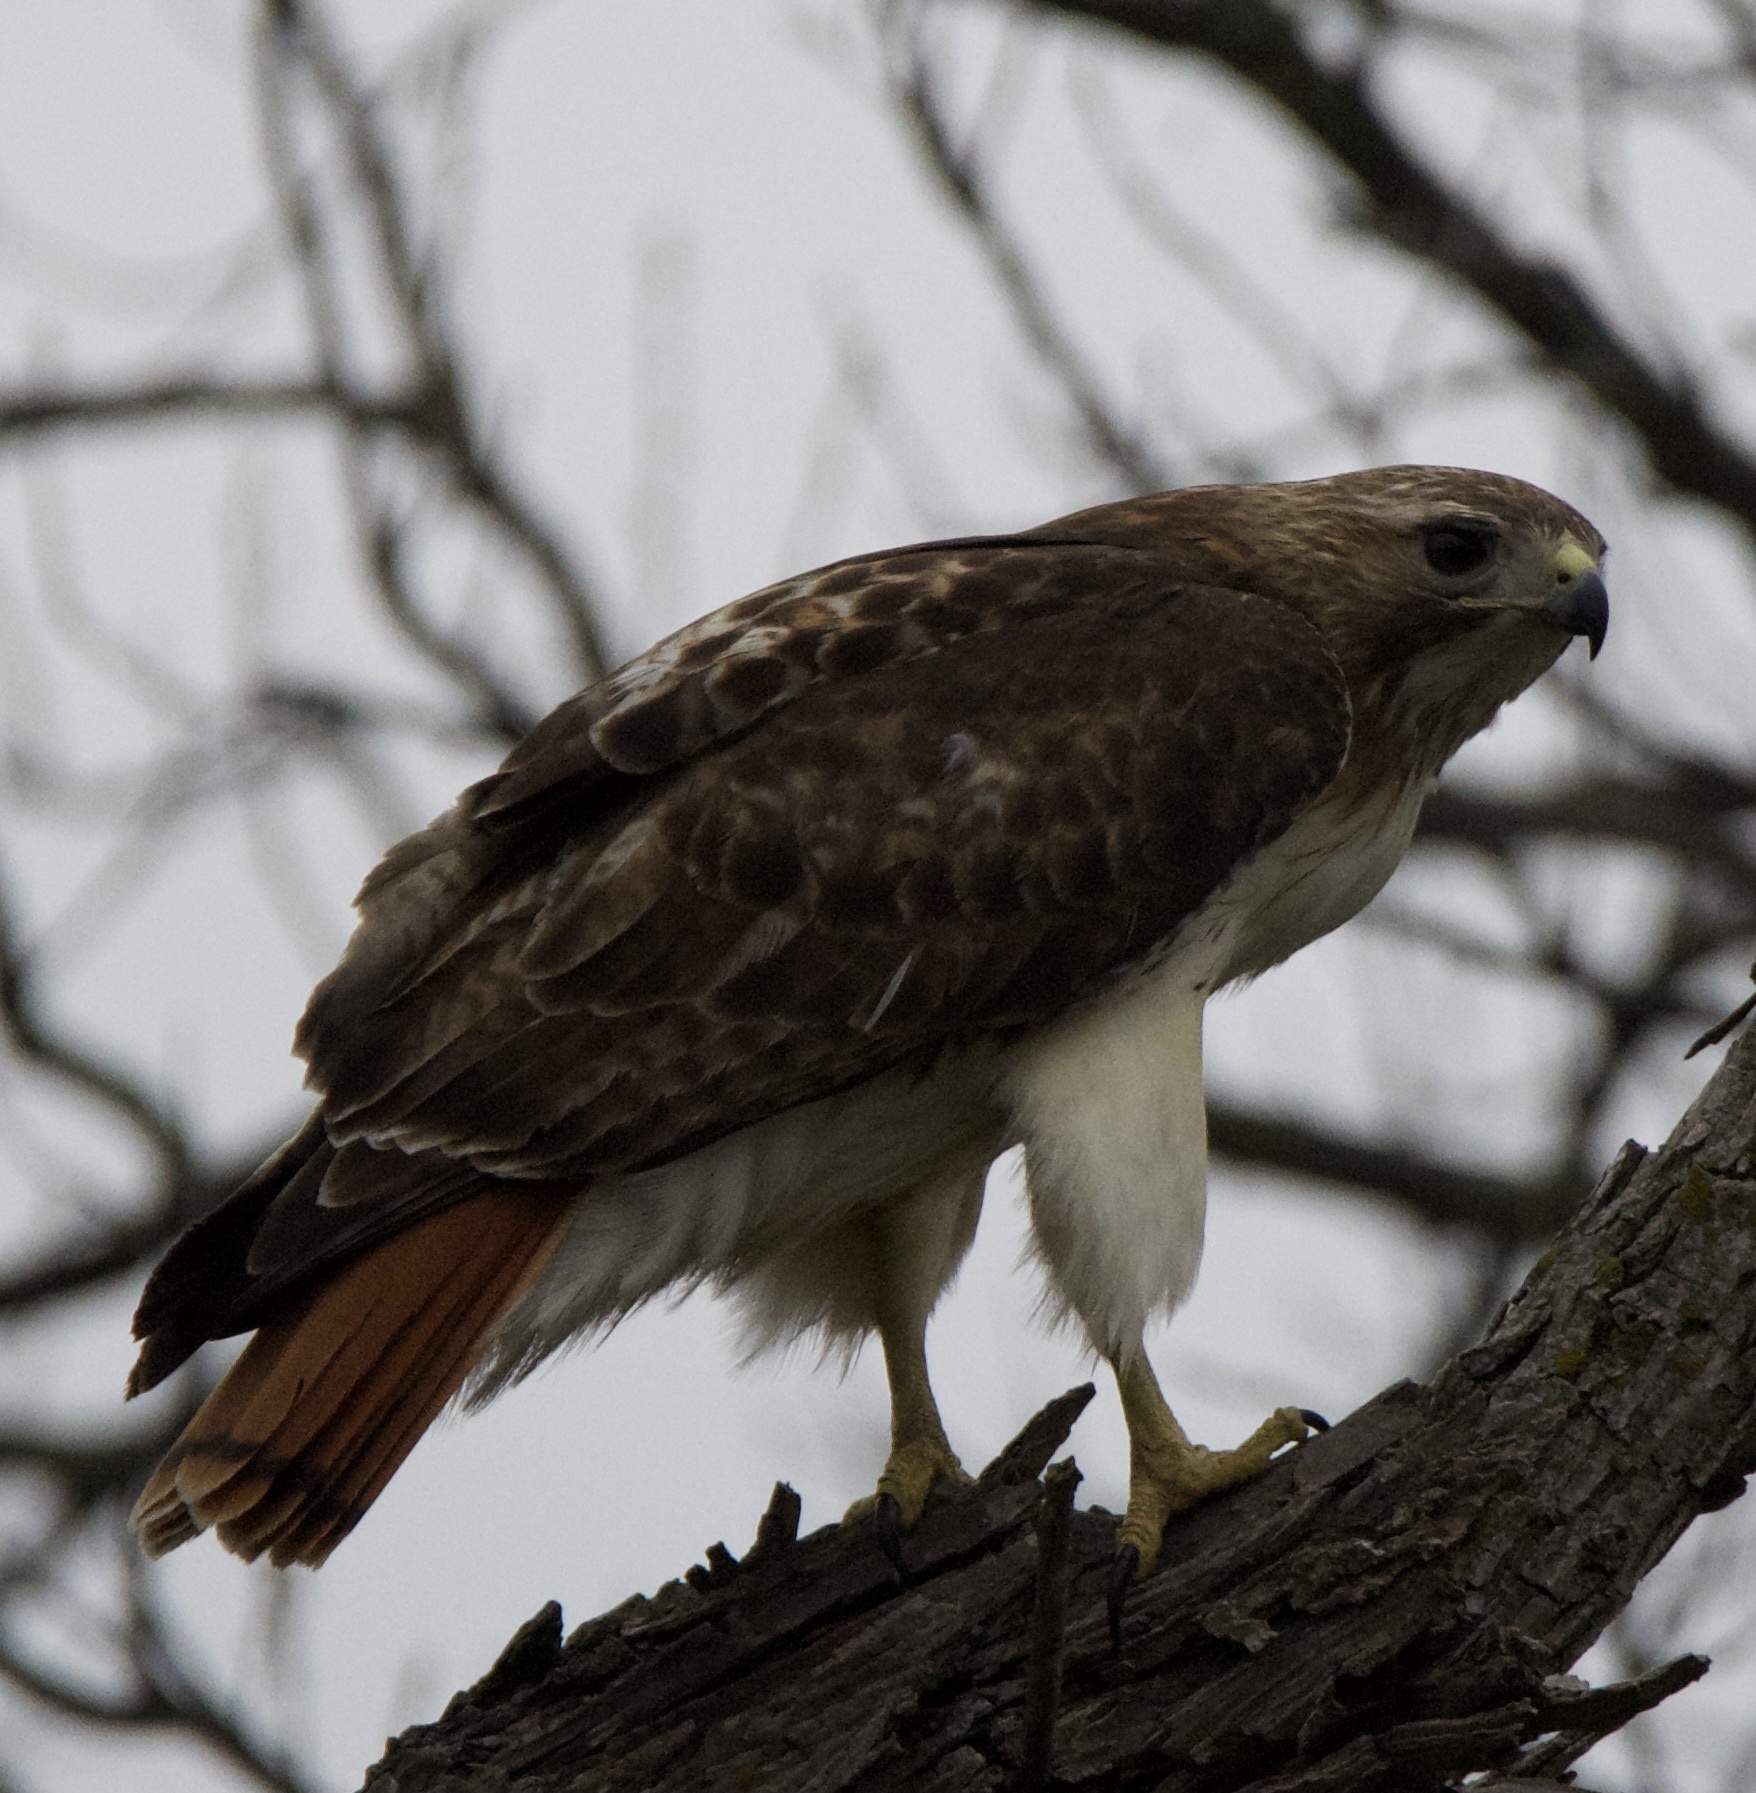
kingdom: Animalia
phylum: Chordata
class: Aves
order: Accipitriformes
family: Accipitridae
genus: Buteo
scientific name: Buteo jamaicensis
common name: Red-tailed hawk
